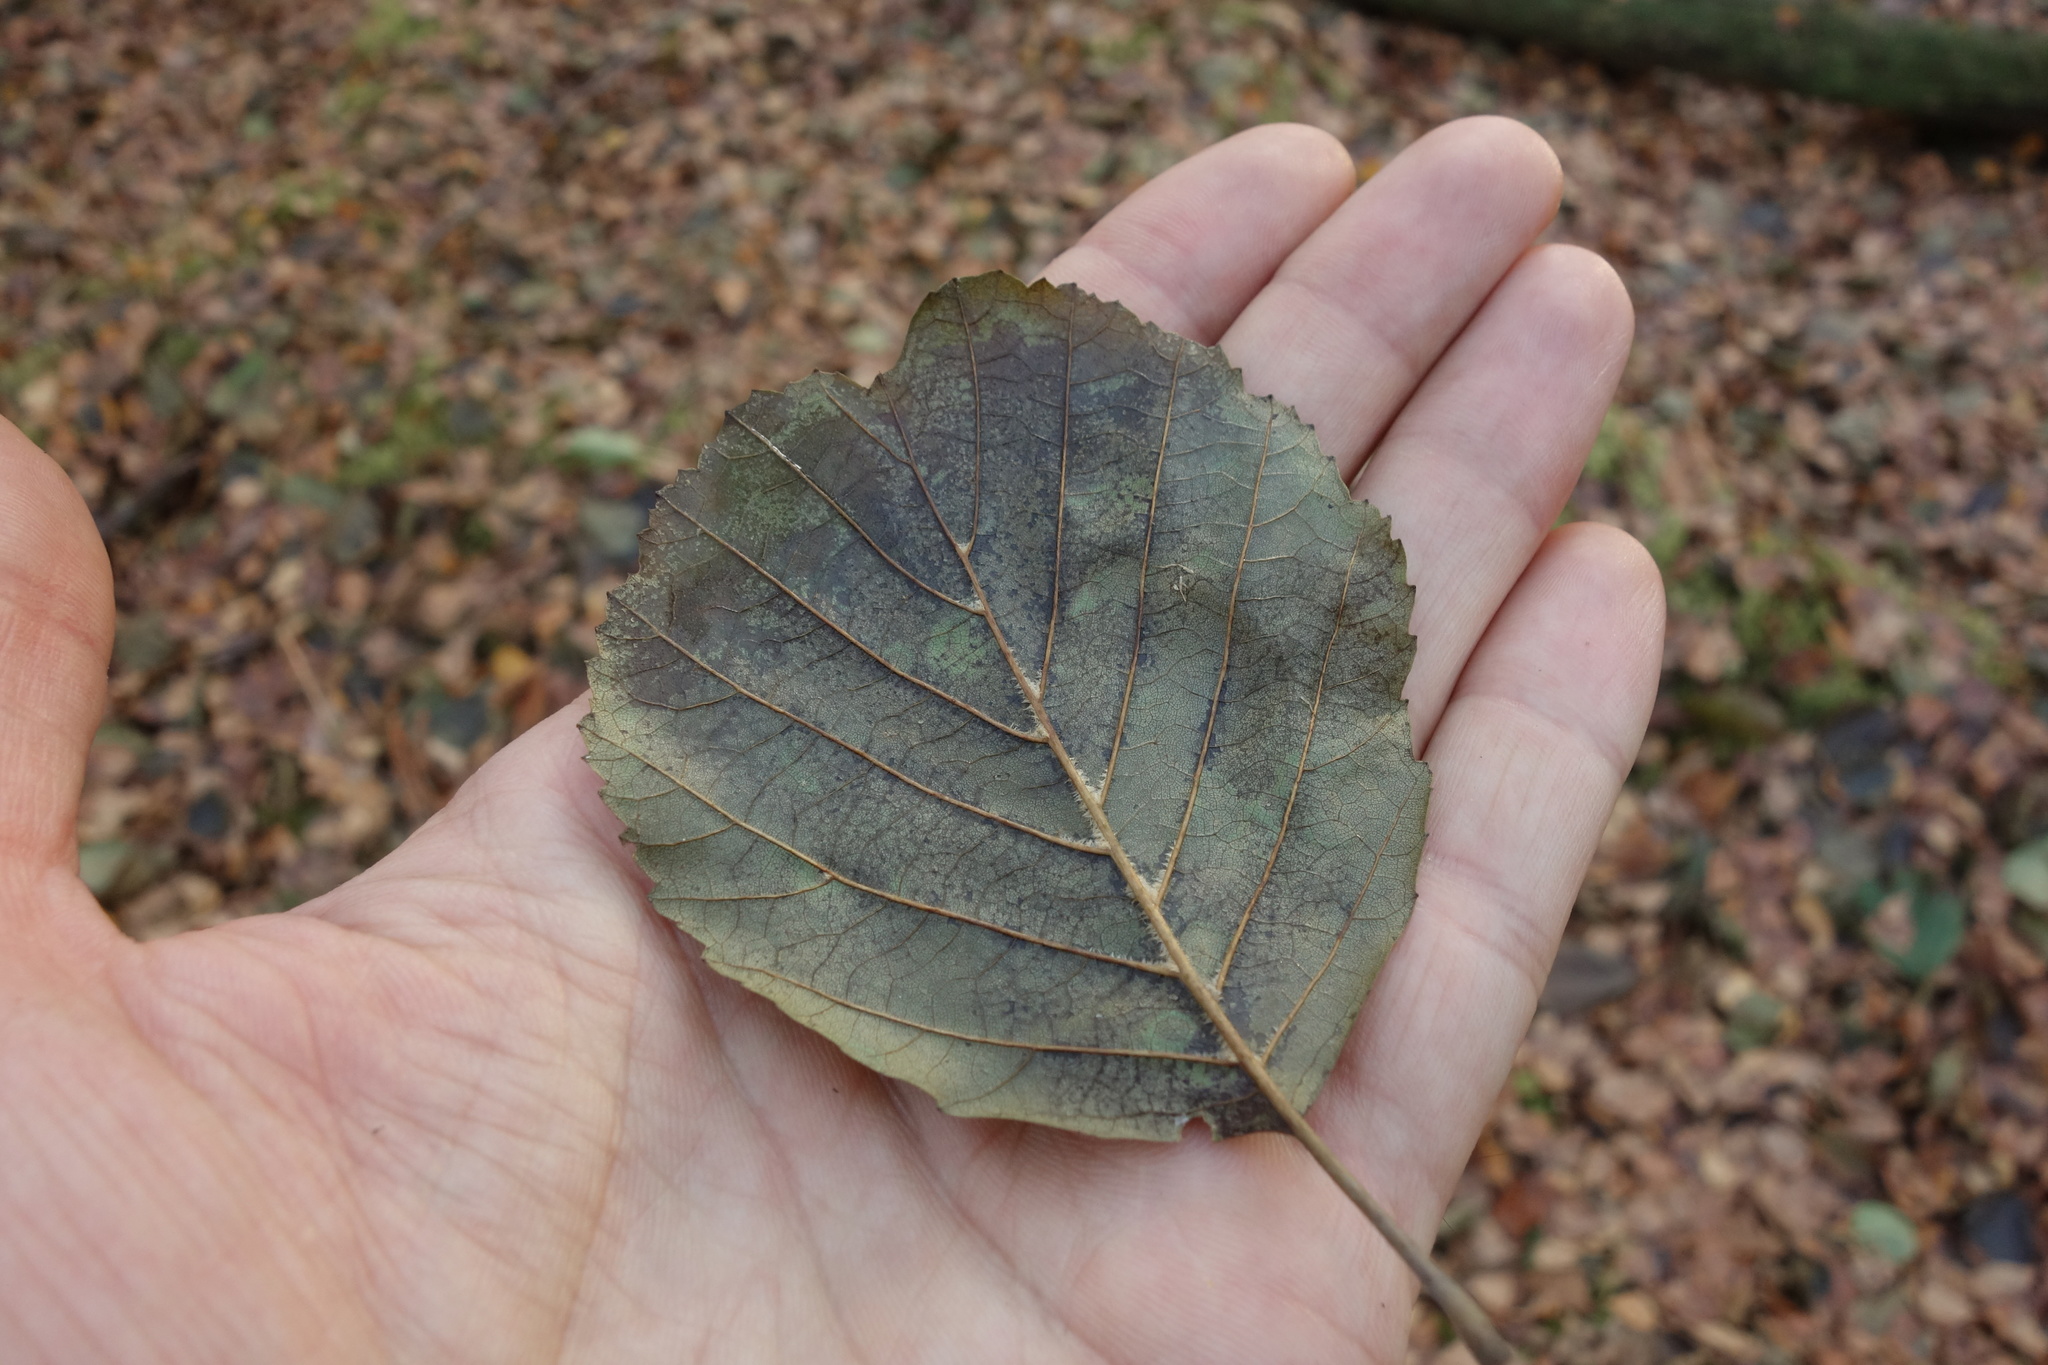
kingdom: Plantae
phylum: Tracheophyta
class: Magnoliopsida
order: Fagales
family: Betulaceae
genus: Alnus
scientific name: Alnus glutinosa
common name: Black alder
